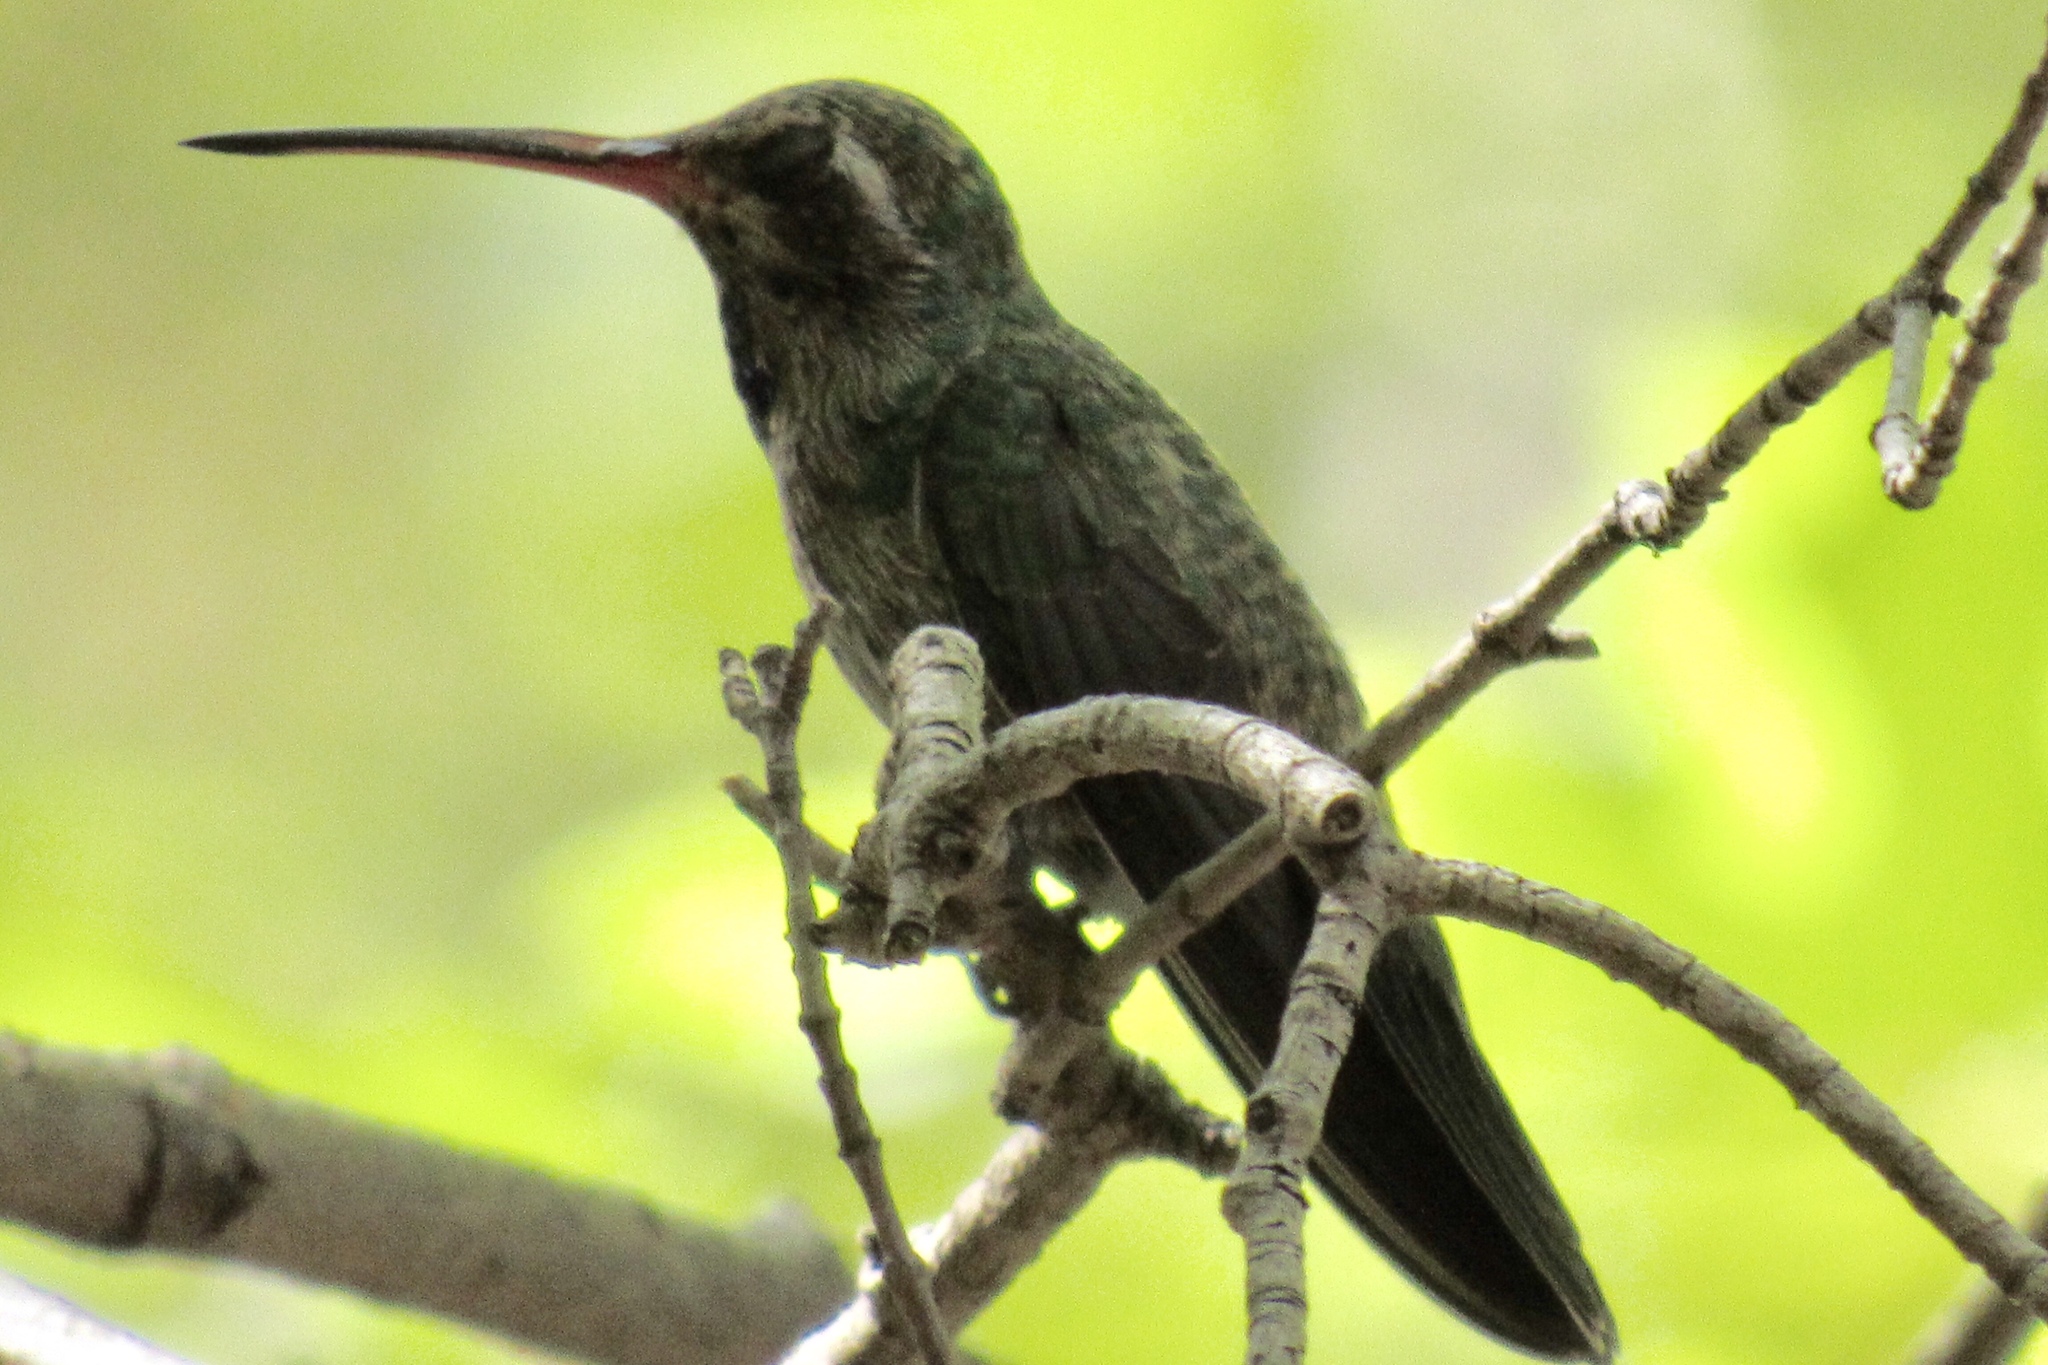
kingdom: Animalia
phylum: Chordata
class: Aves
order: Apodiformes
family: Trochilidae
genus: Cynanthus
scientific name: Cynanthus latirostris
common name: Broad-billed hummingbird
